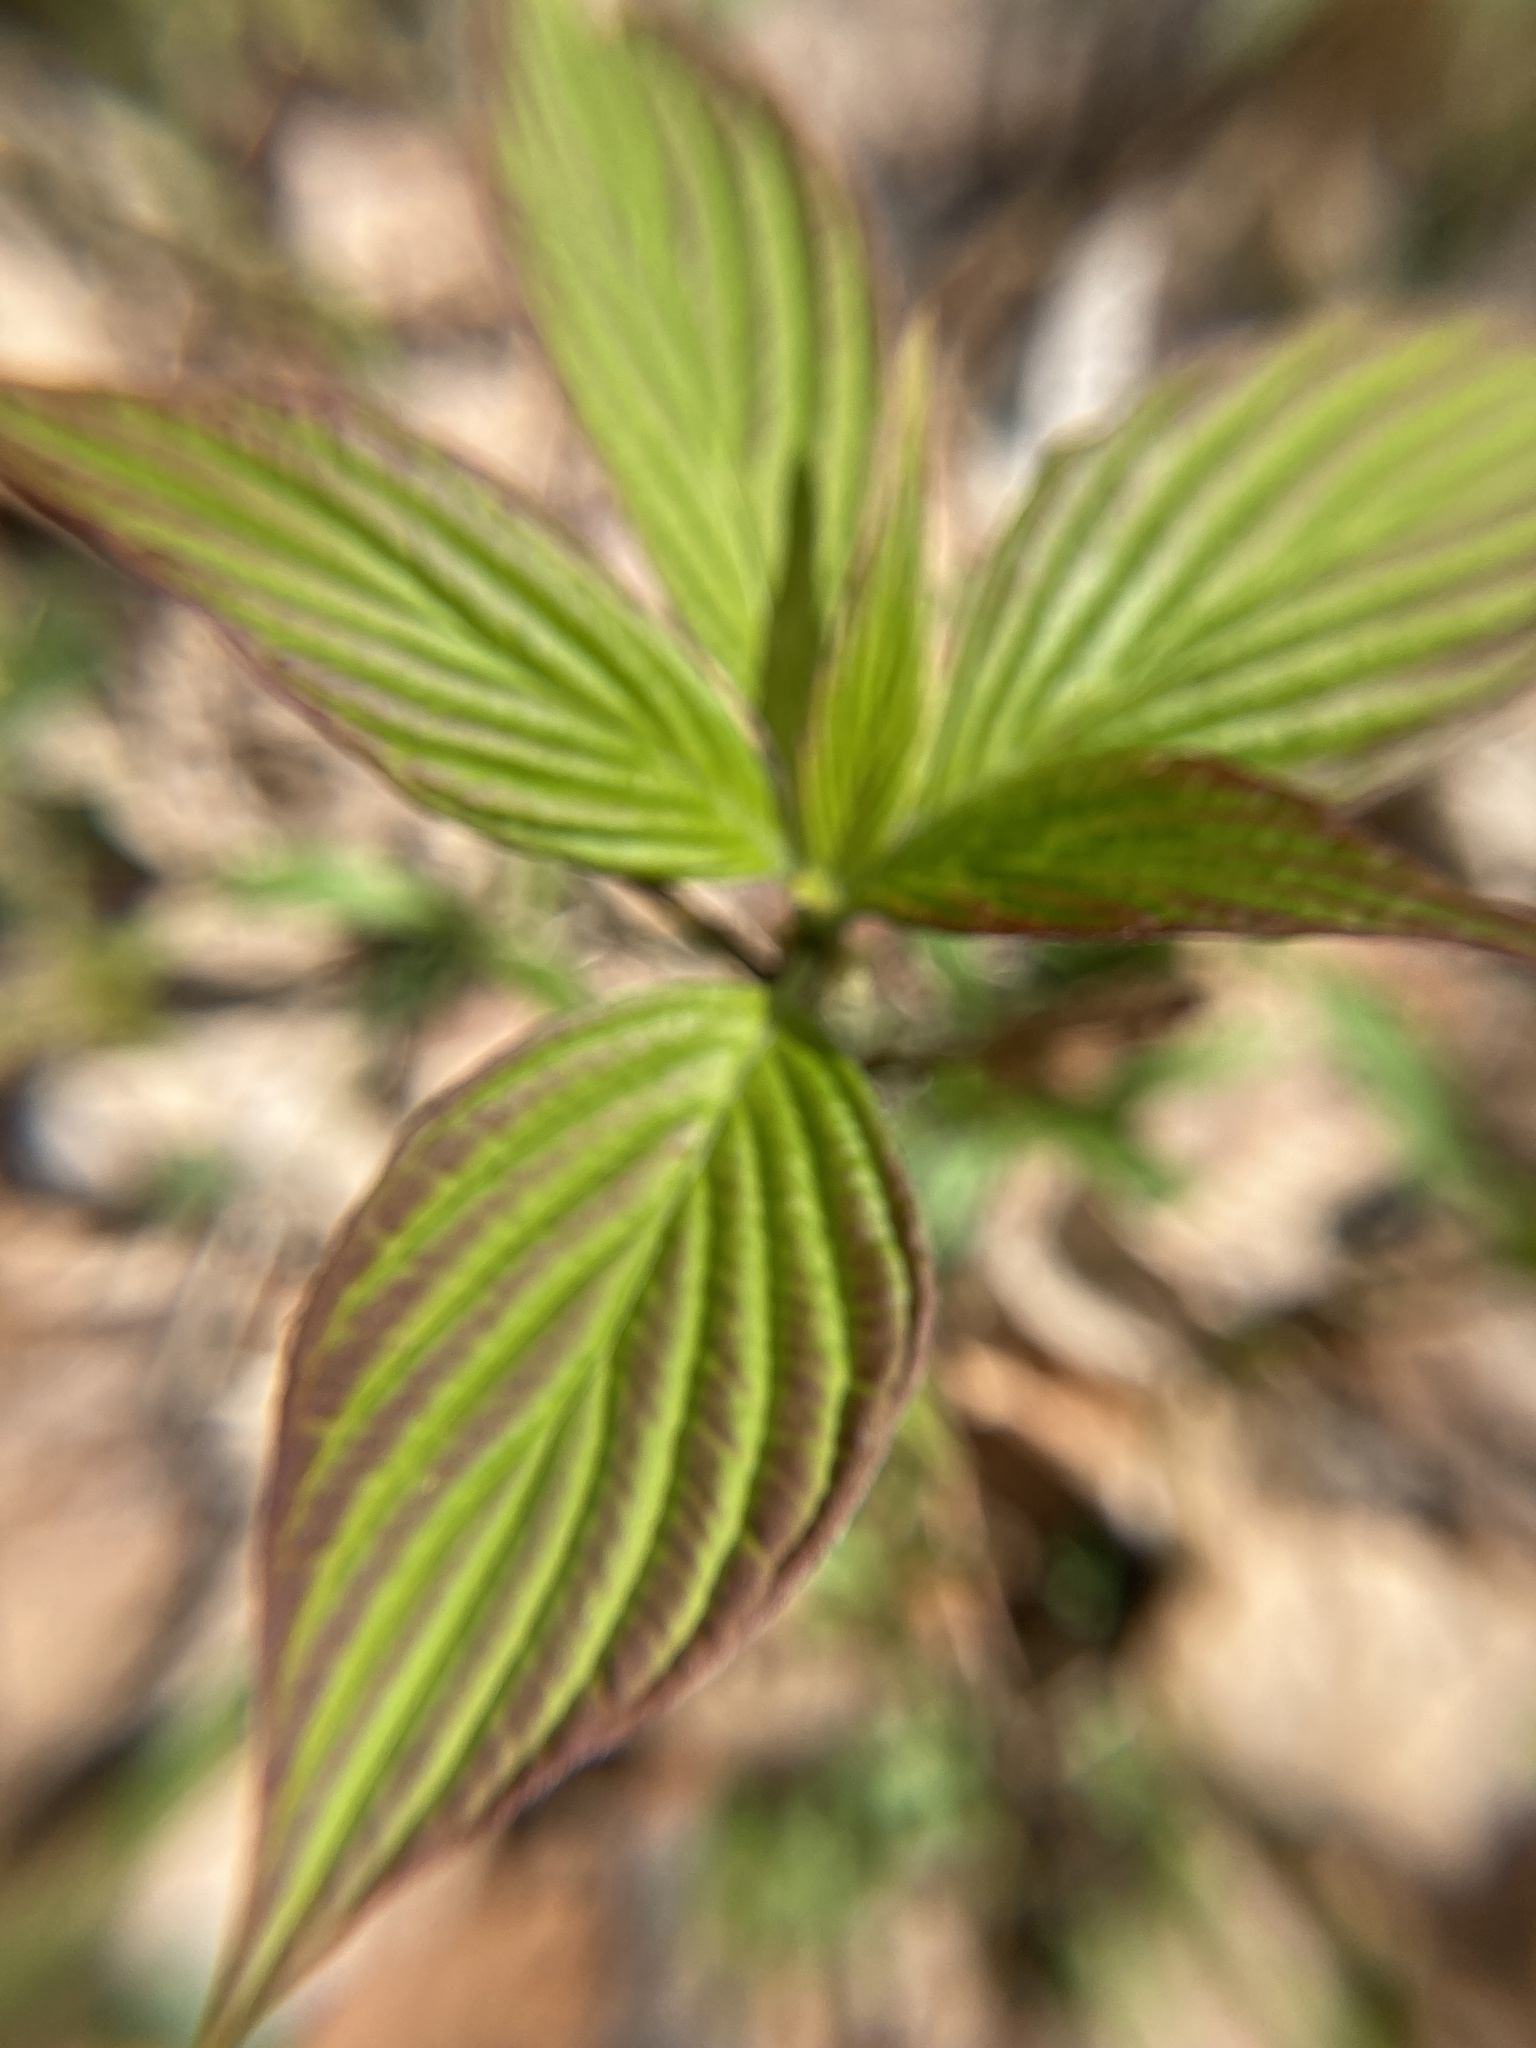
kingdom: Plantae
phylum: Tracheophyta
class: Magnoliopsida
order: Cornales
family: Cornaceae
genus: Cornus
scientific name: Cornus alternifolia
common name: Pagoda dogwood
